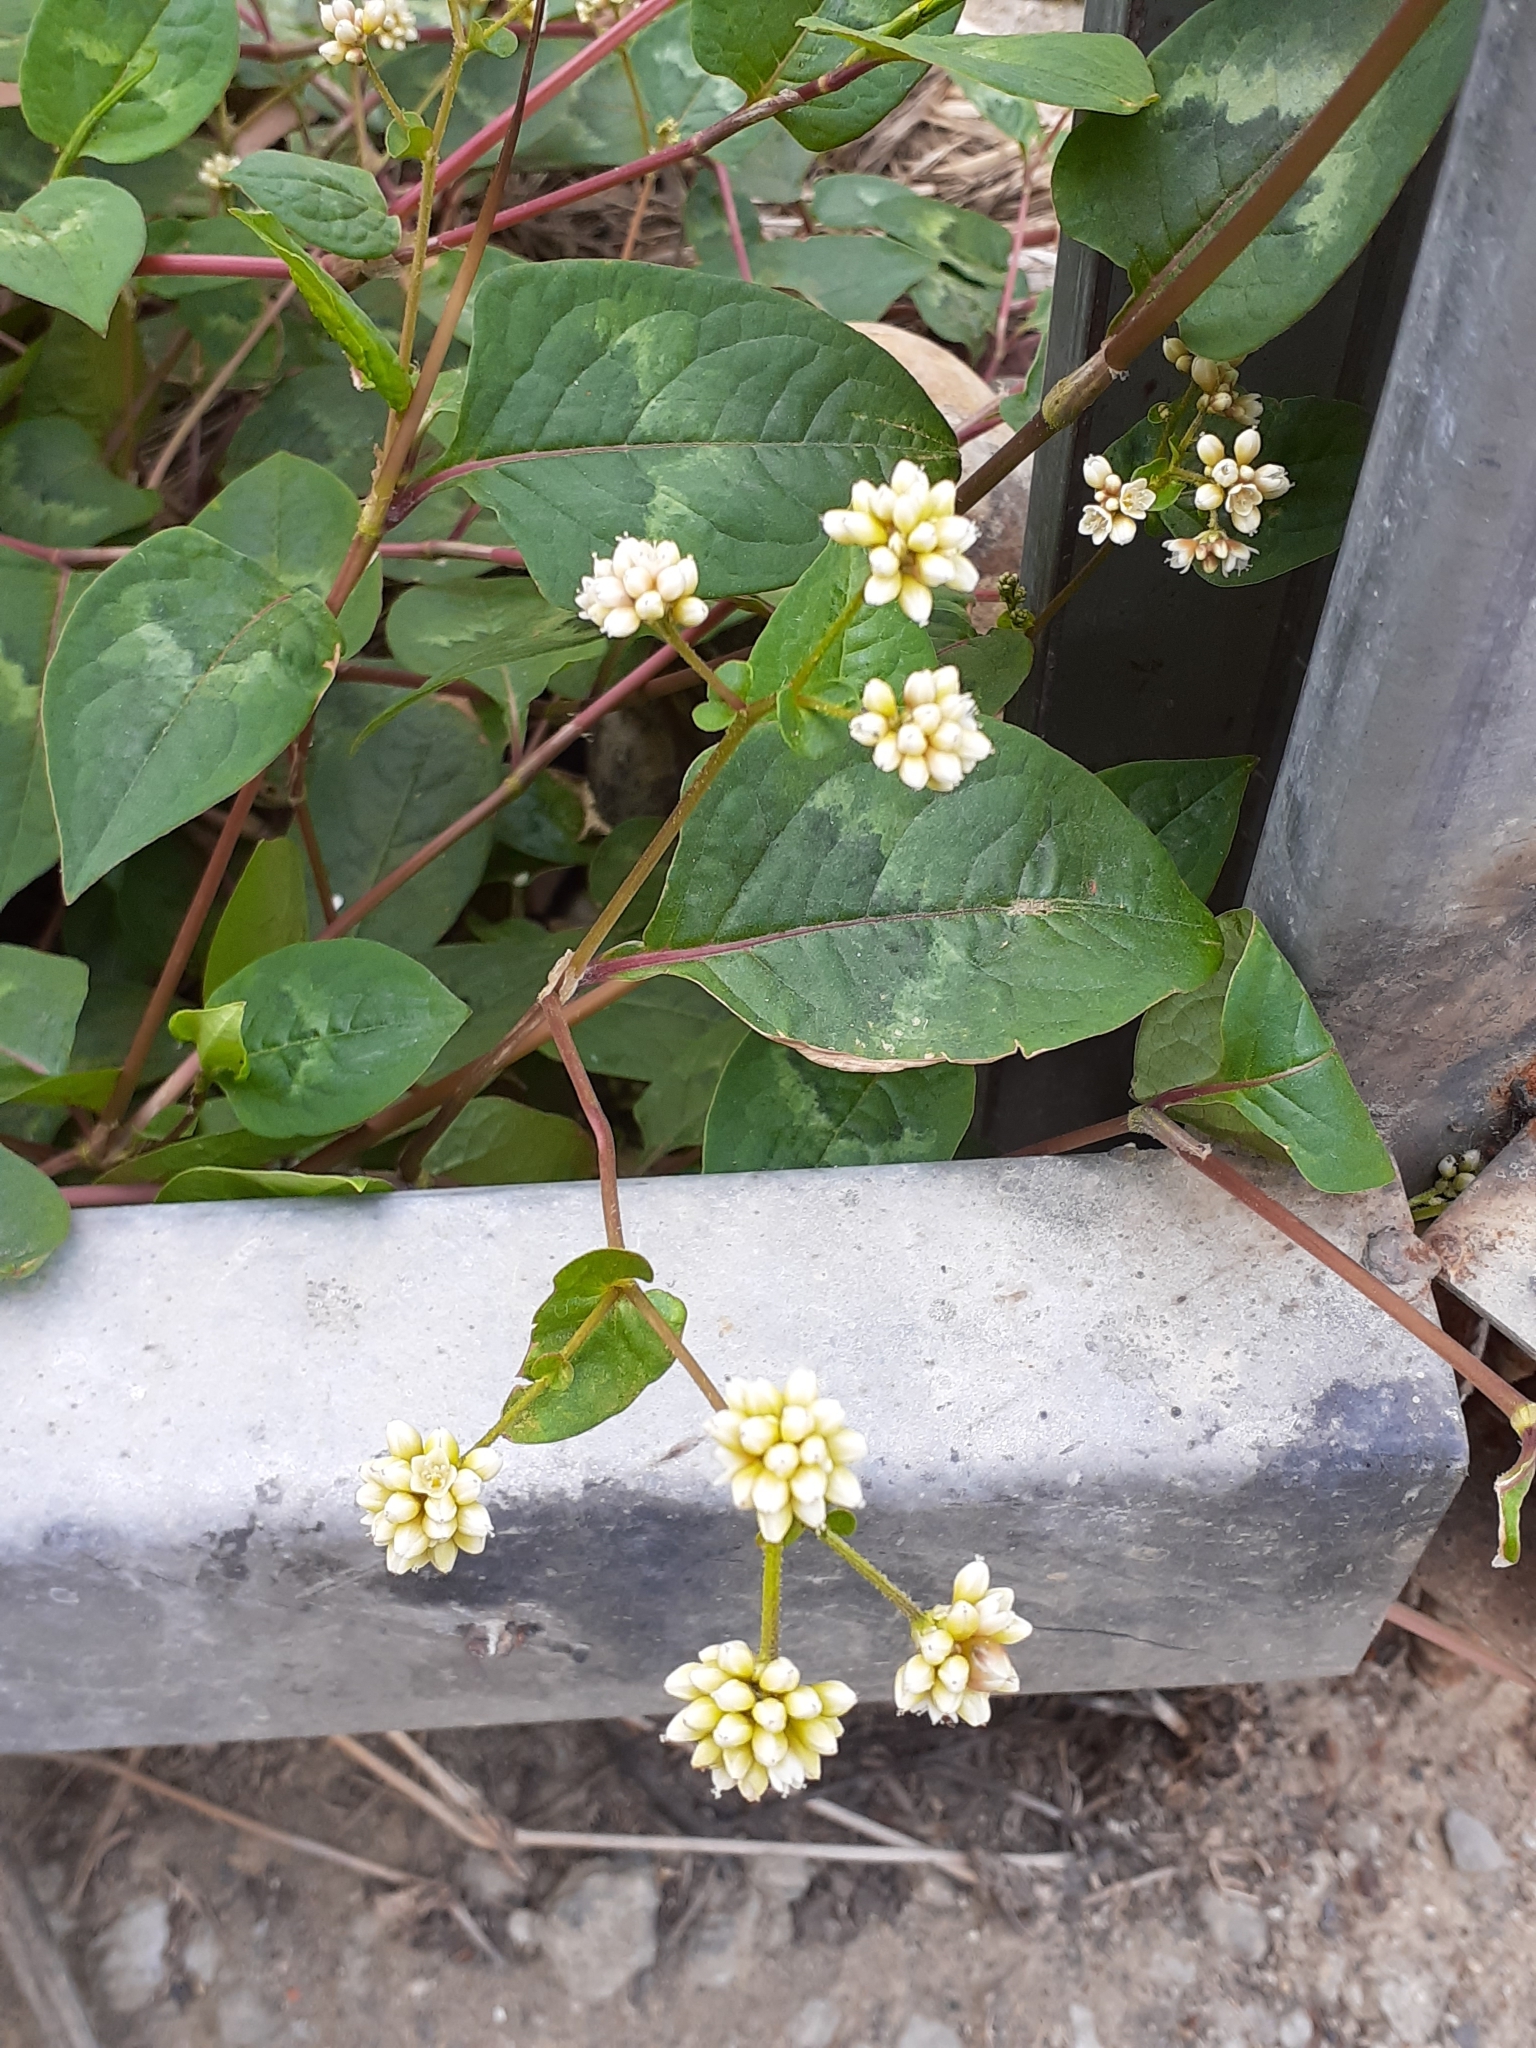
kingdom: Plantae
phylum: Tracheophyta
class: Magnoliopsida
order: Caryophyllales
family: Polygonaceae
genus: Persicaria
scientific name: Persicaria chinensis
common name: Chinese knotweed
